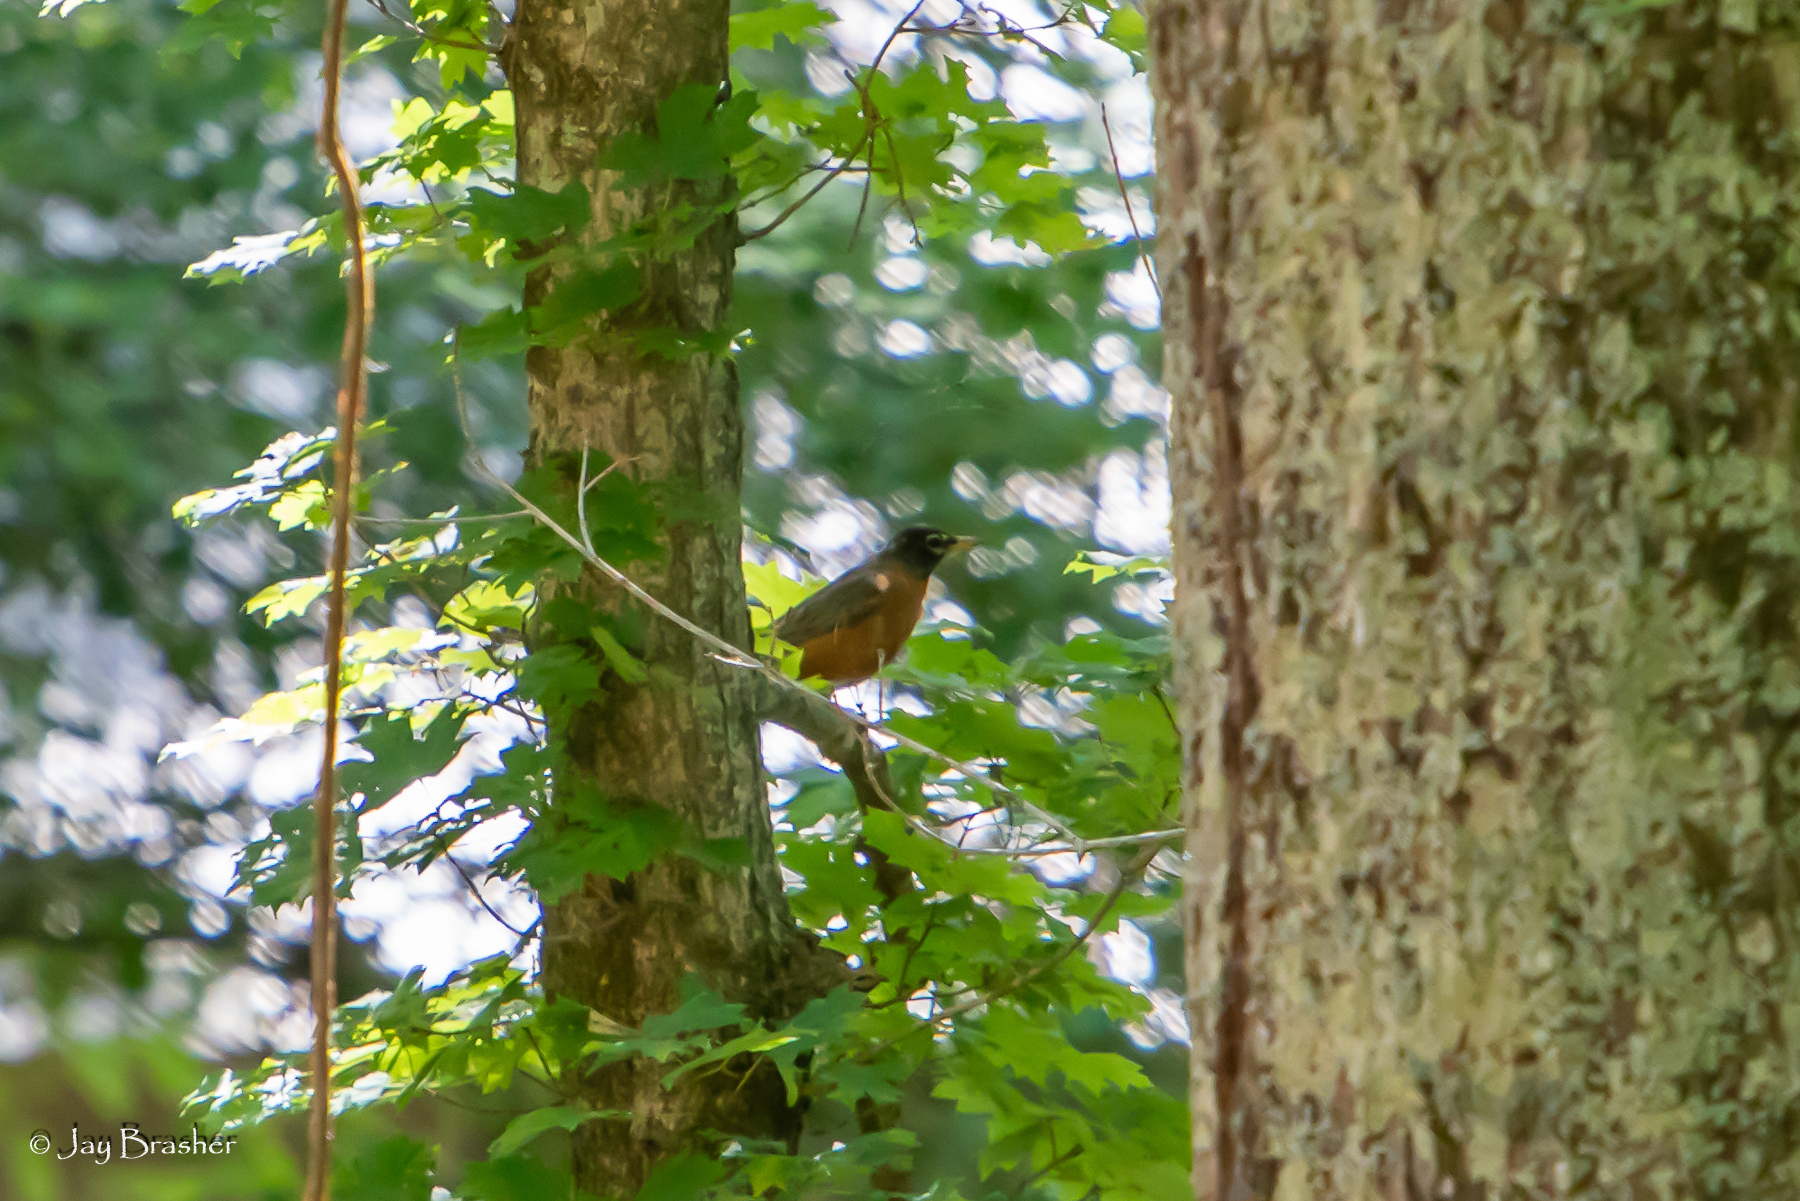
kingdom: Animalia
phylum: Chordata
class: Aves
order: Passeriformes
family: Turdidae
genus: Turdus
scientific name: Turdus migratorius
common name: American robin
